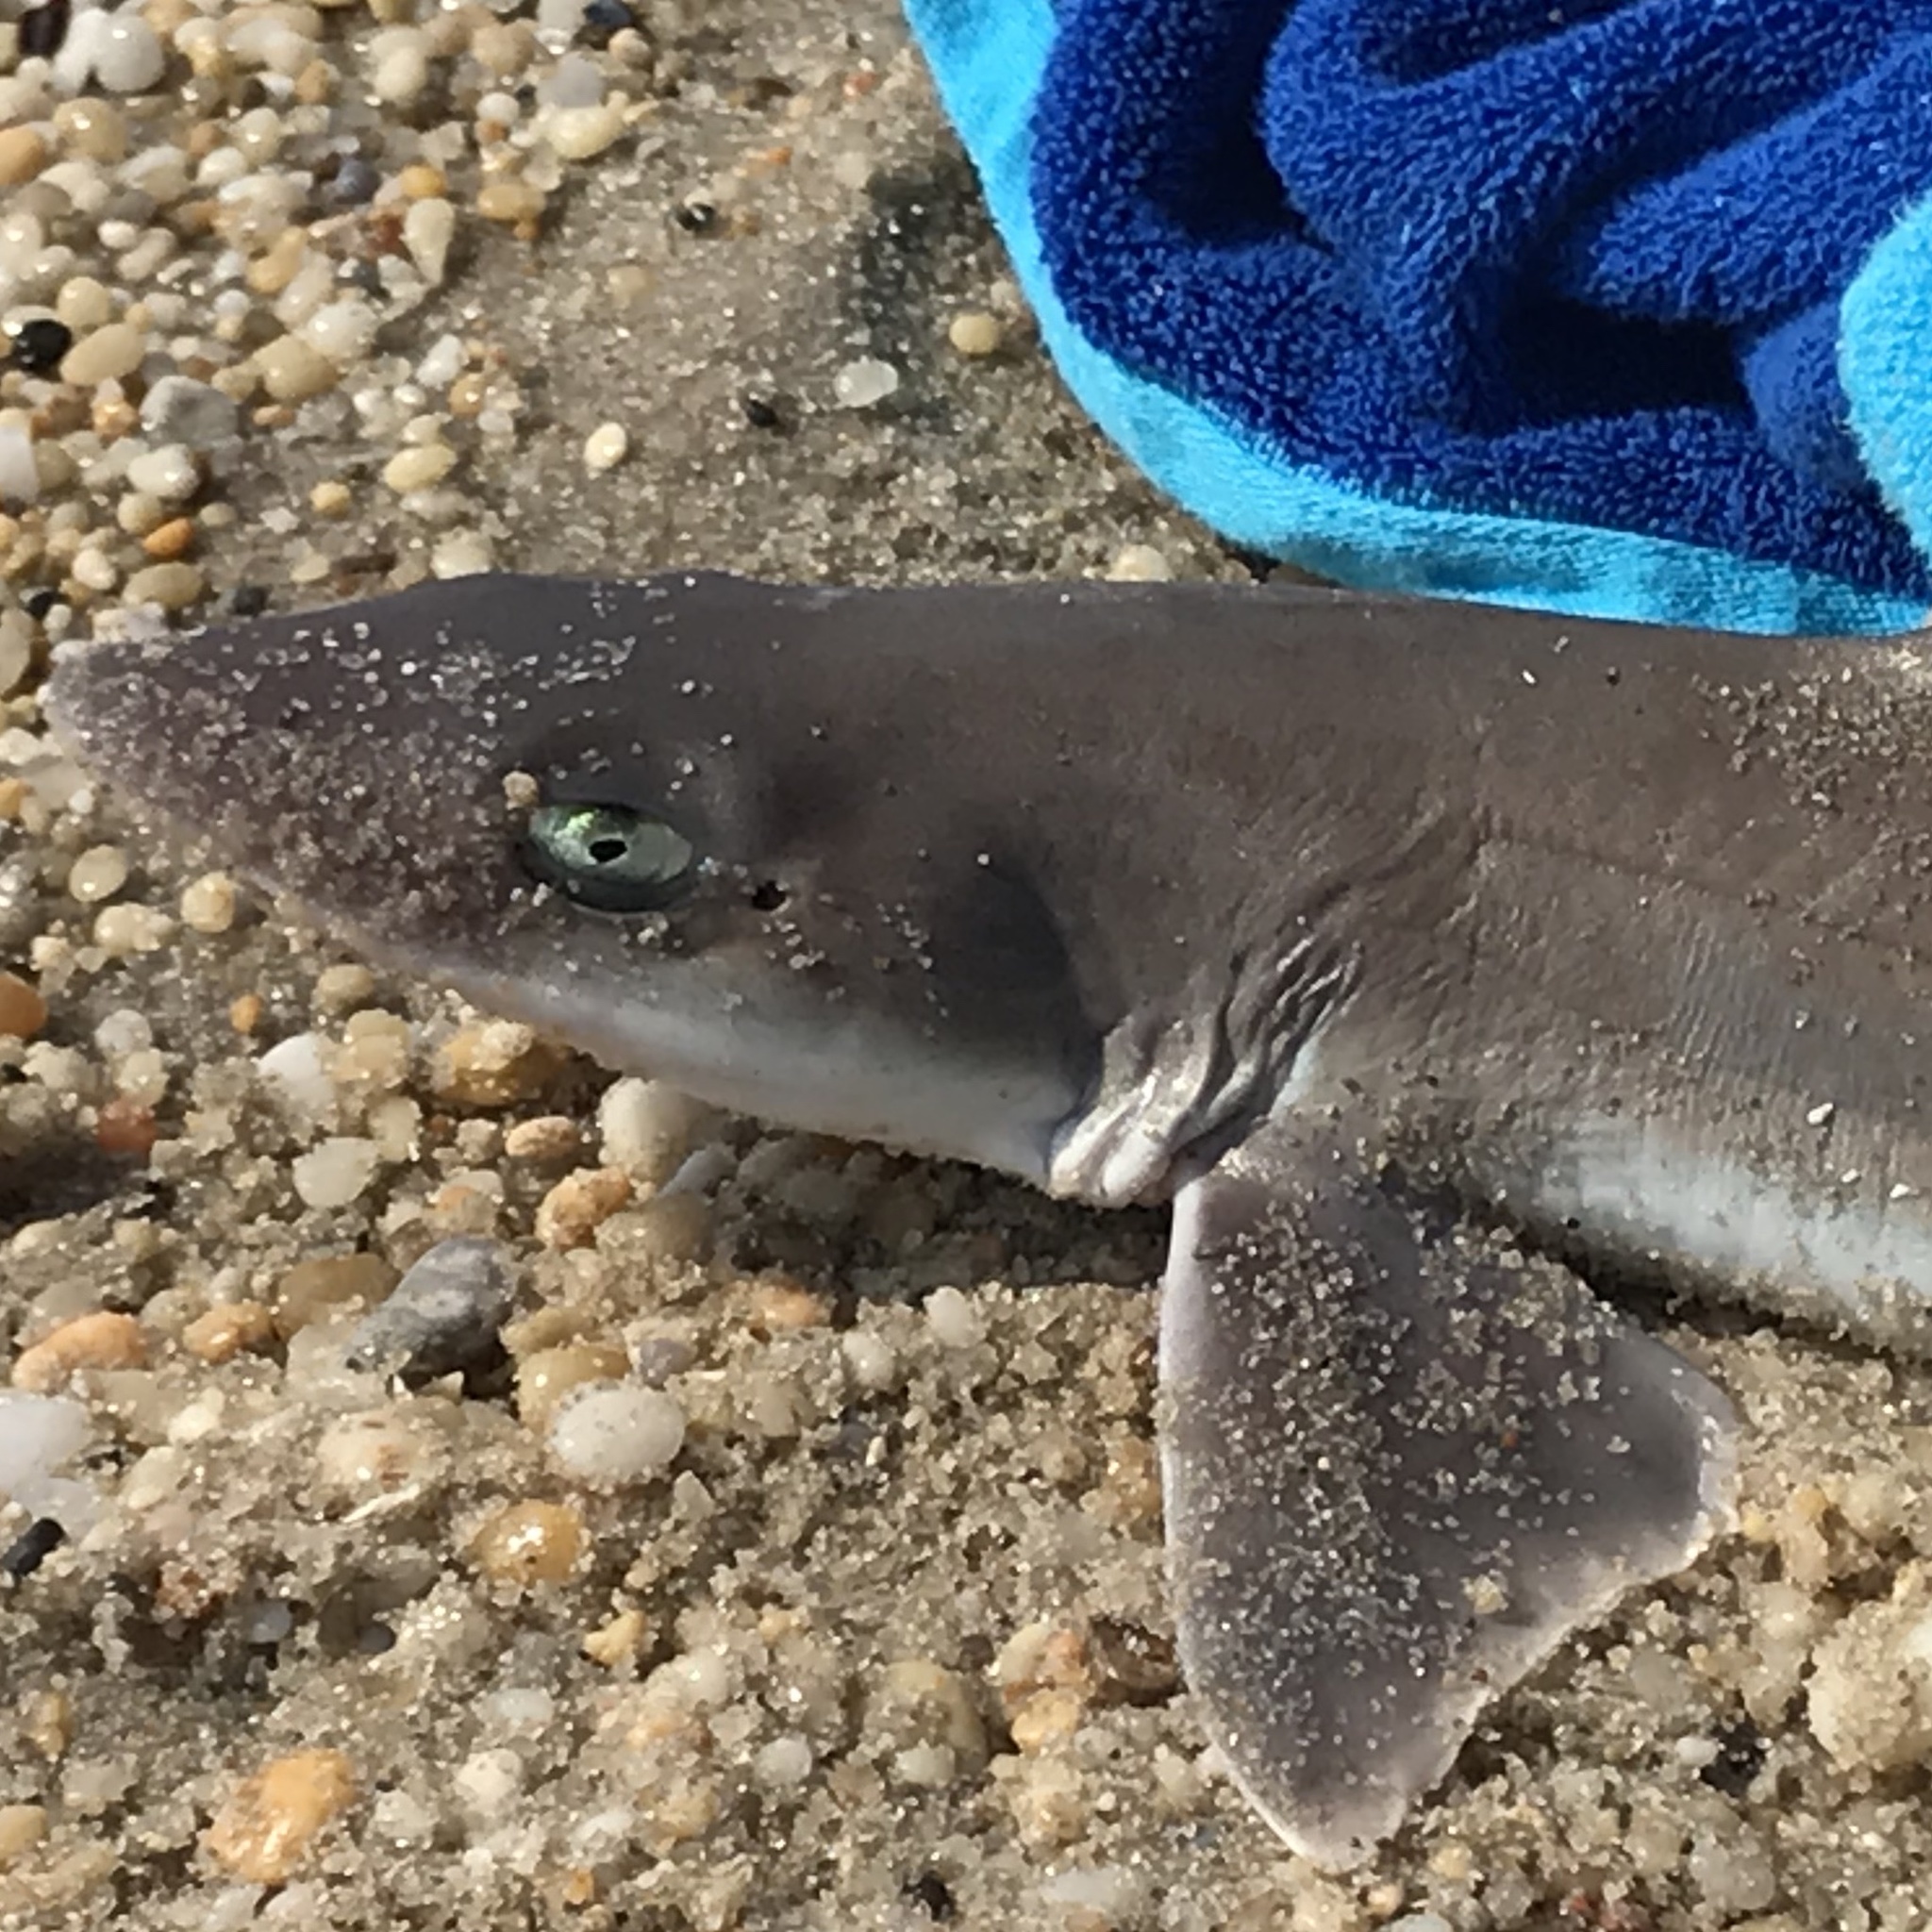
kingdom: Animalia
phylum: Chordata
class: Elasmobranchii
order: Carcharhiniformes
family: Triakidae
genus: Mustelus
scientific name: Mustelus canis
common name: Smooth dogfish
